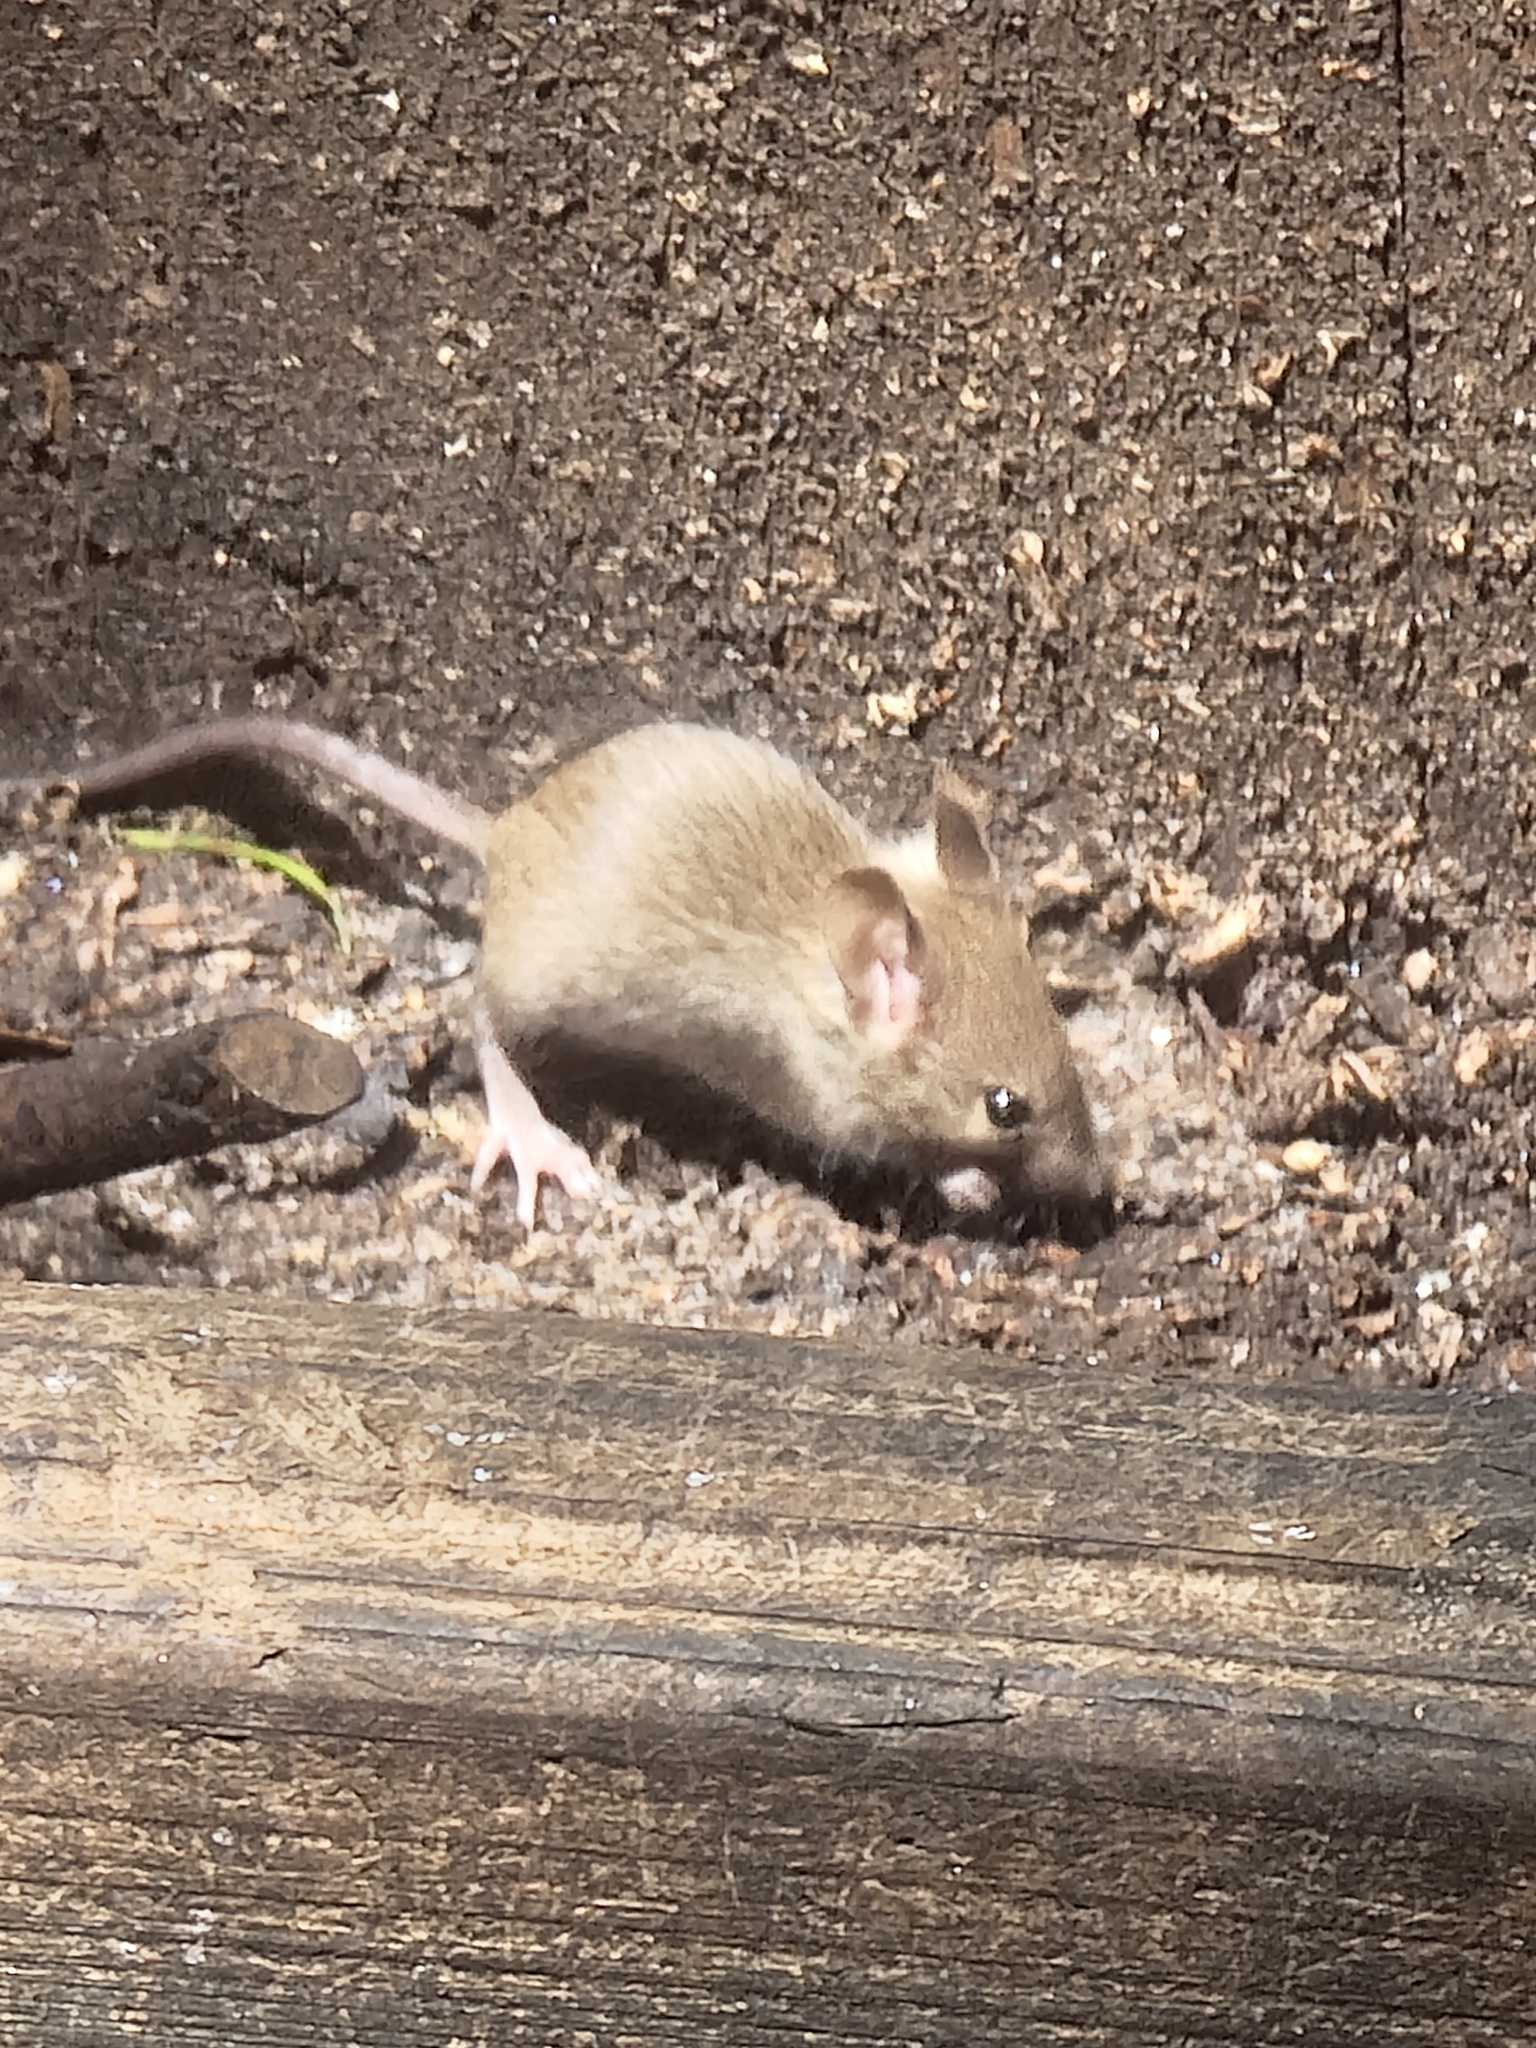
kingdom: Animalia
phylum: Chordata
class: Mammalia
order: Rodentia
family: Muridae
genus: Mus
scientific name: Mus musculus
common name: House mouse
